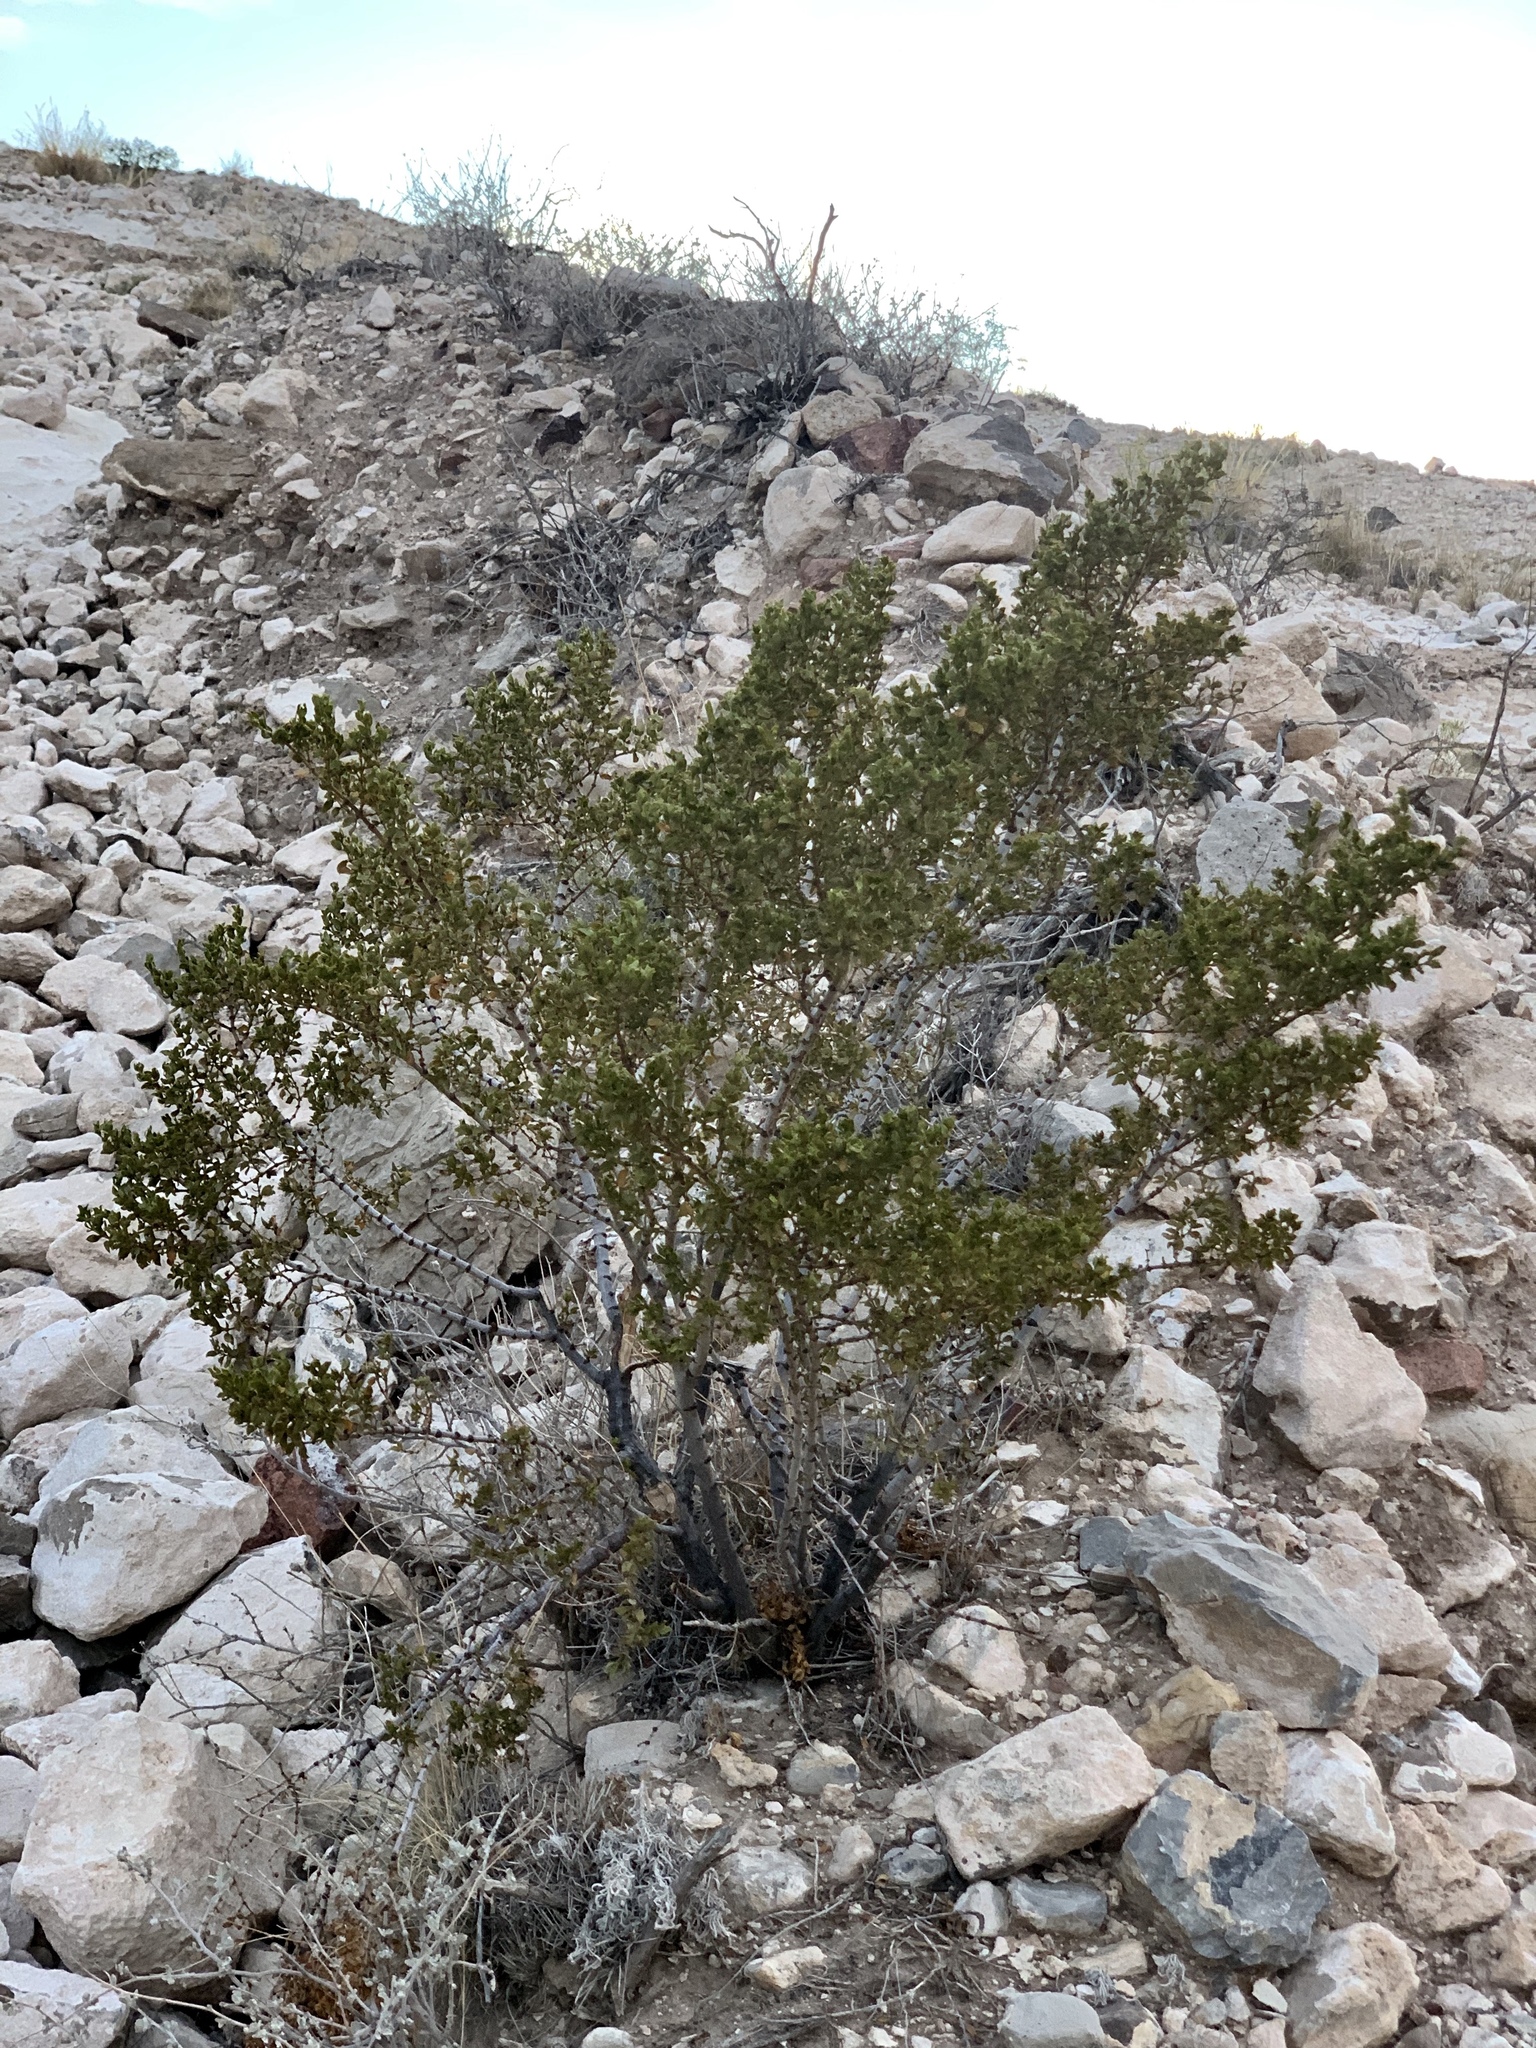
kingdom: Plantae
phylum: Tracheophyta
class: Magnoliopsida
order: Zygophyllales
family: Zygophyllaceae
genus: Larrea
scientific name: Larrea tridentata
